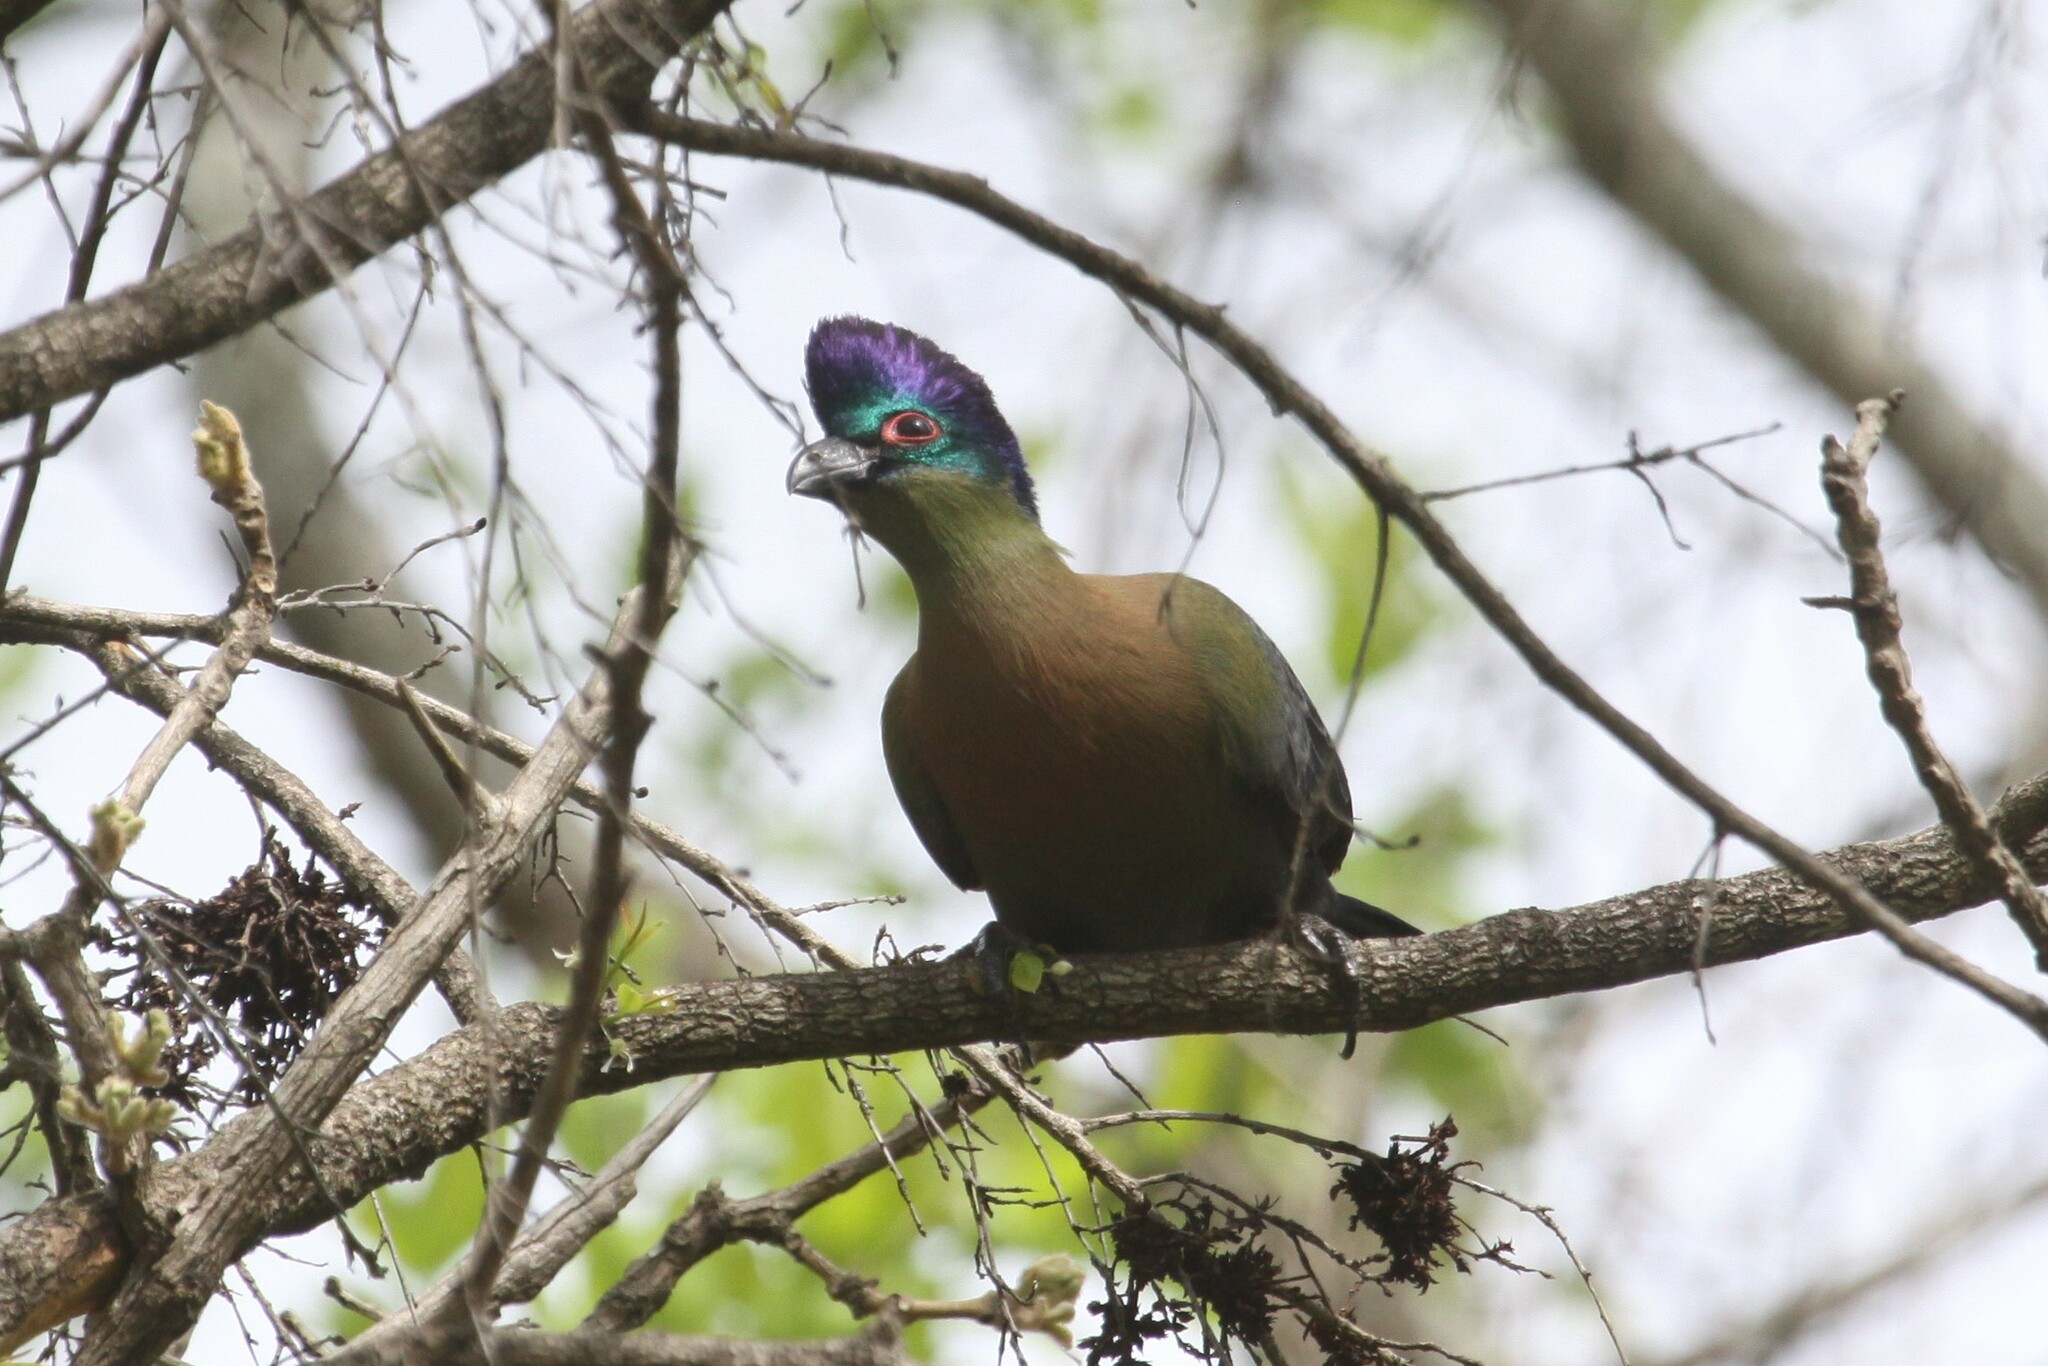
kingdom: Animalia
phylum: Chordata
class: Aves
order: Musophagiformes
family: Musophagidae
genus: Tauraco
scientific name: Tauraco porphyreolophus
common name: Purple-crested turaco
